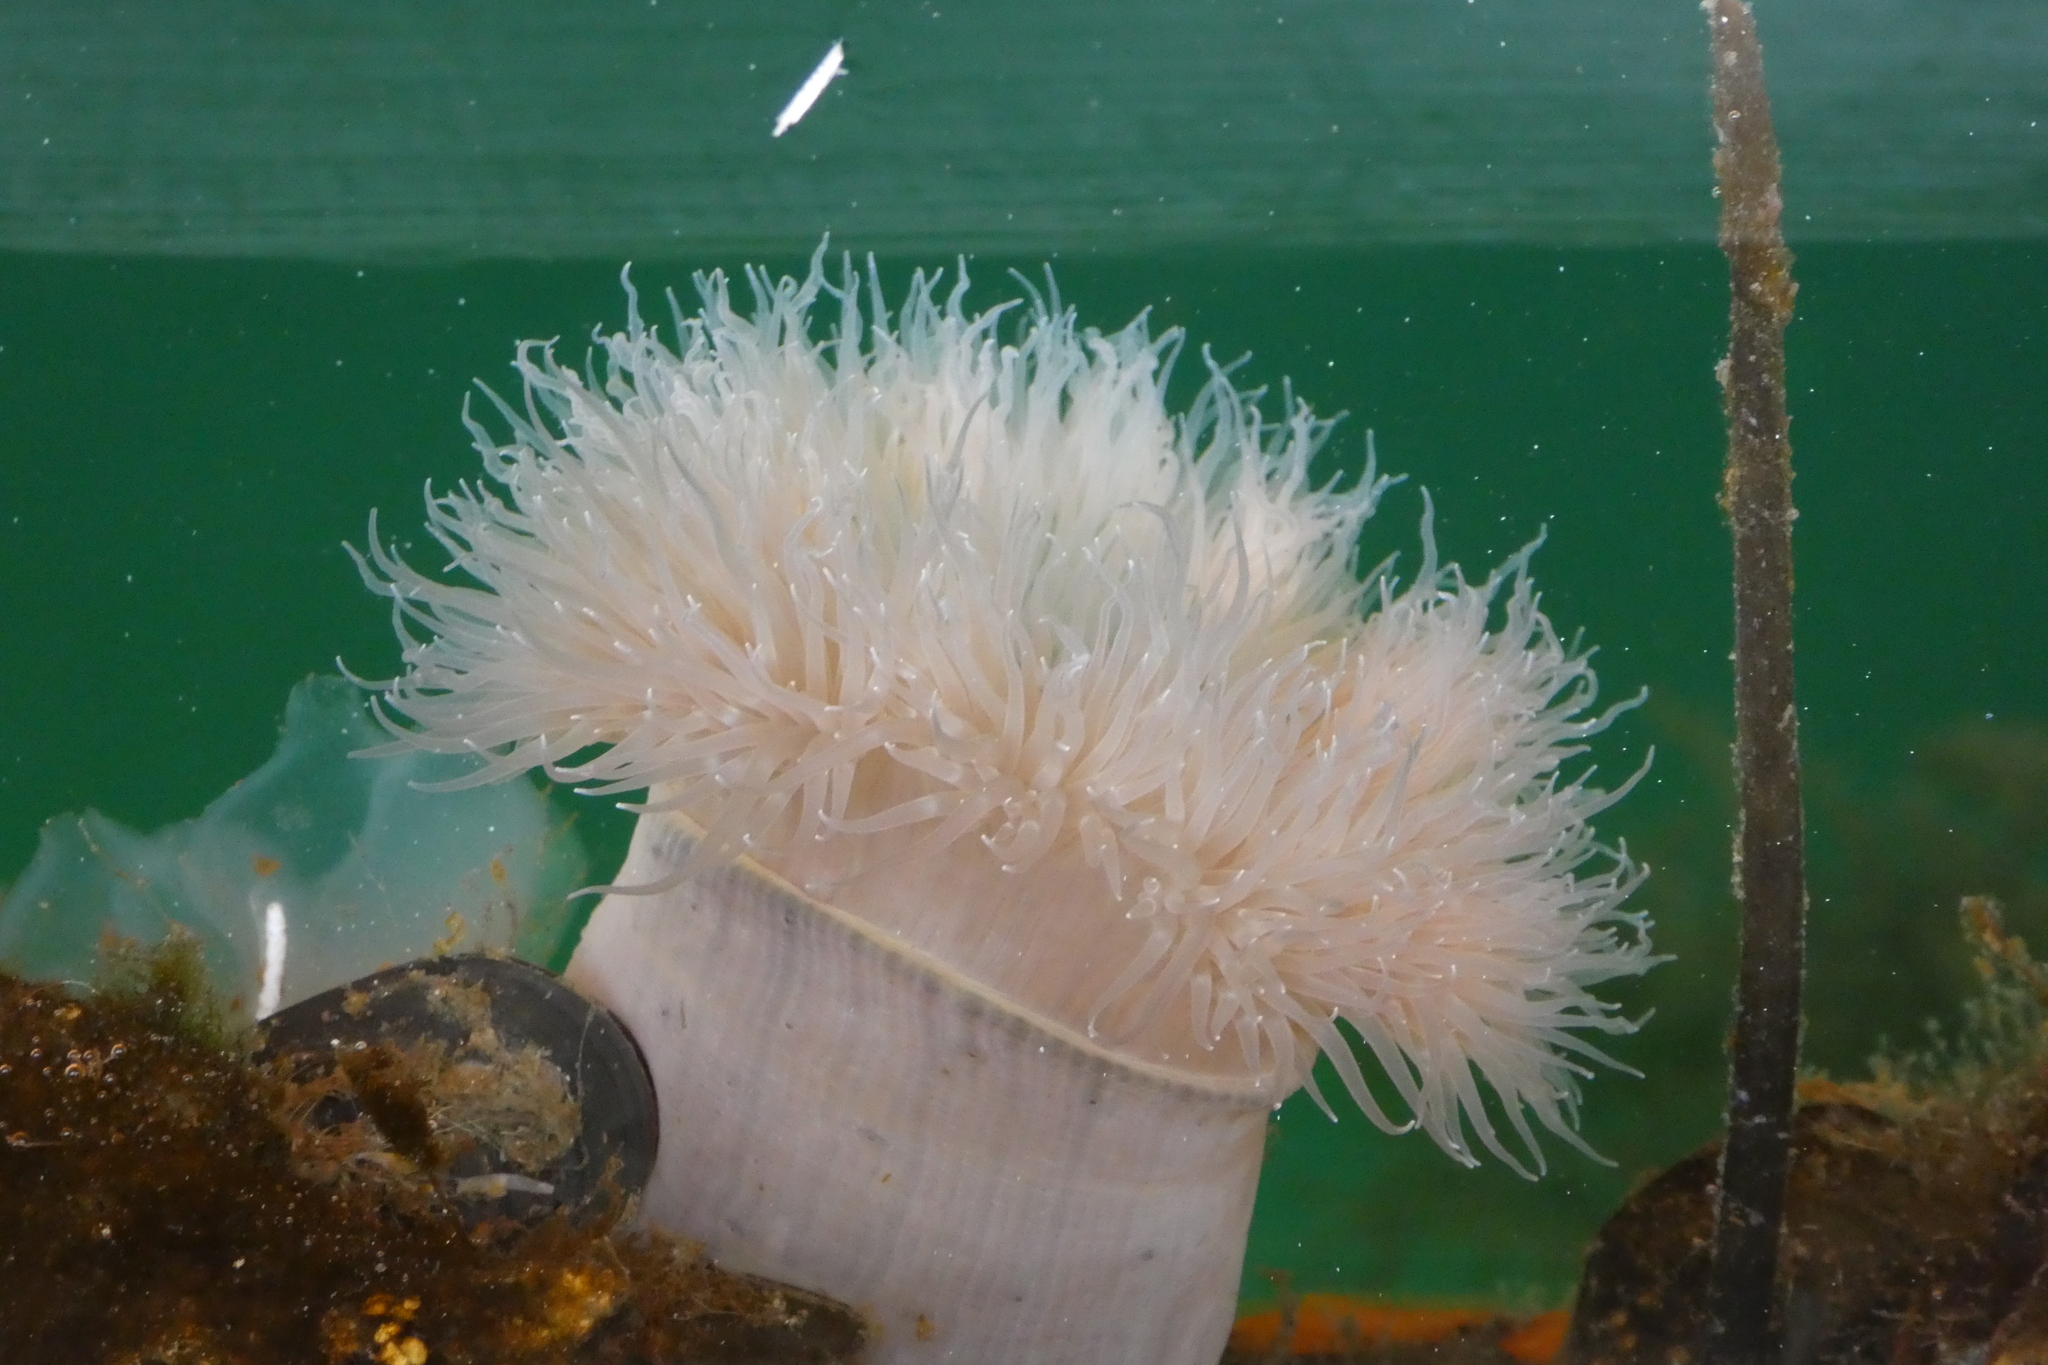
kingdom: Animalia
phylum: Cnidaria
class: Anthozoa
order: Actiniaria
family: Metridiidae
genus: Metridium
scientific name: Metridium senile
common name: Clonal plumose anemone
